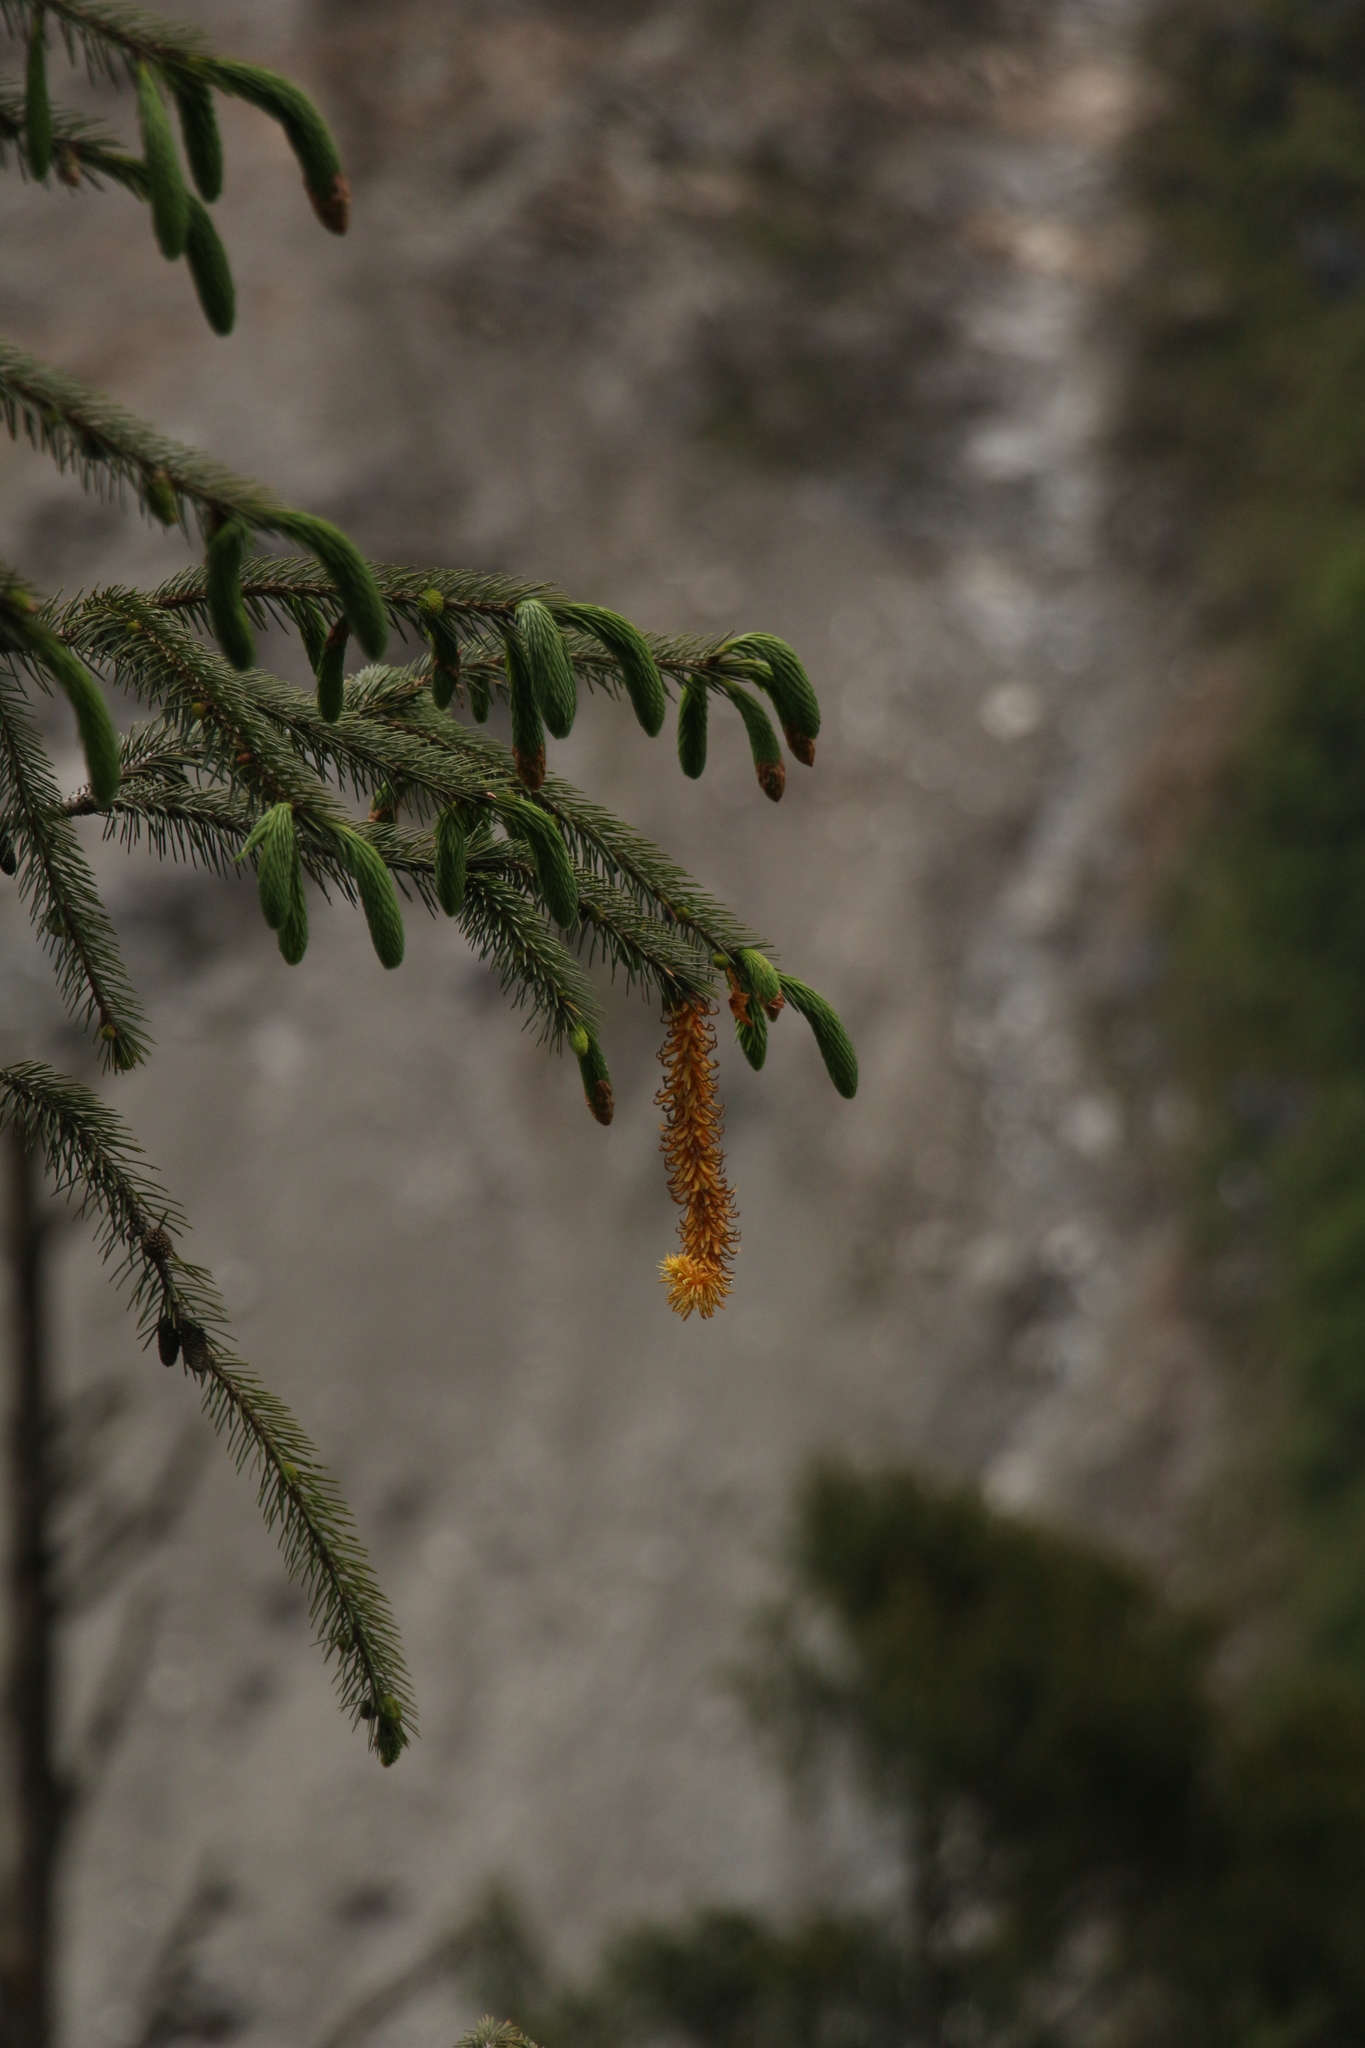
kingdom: Plantae
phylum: Tracheophyta
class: Pinopsida
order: Pinales
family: Pinaceae
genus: Picea
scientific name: Picea spinulosa
